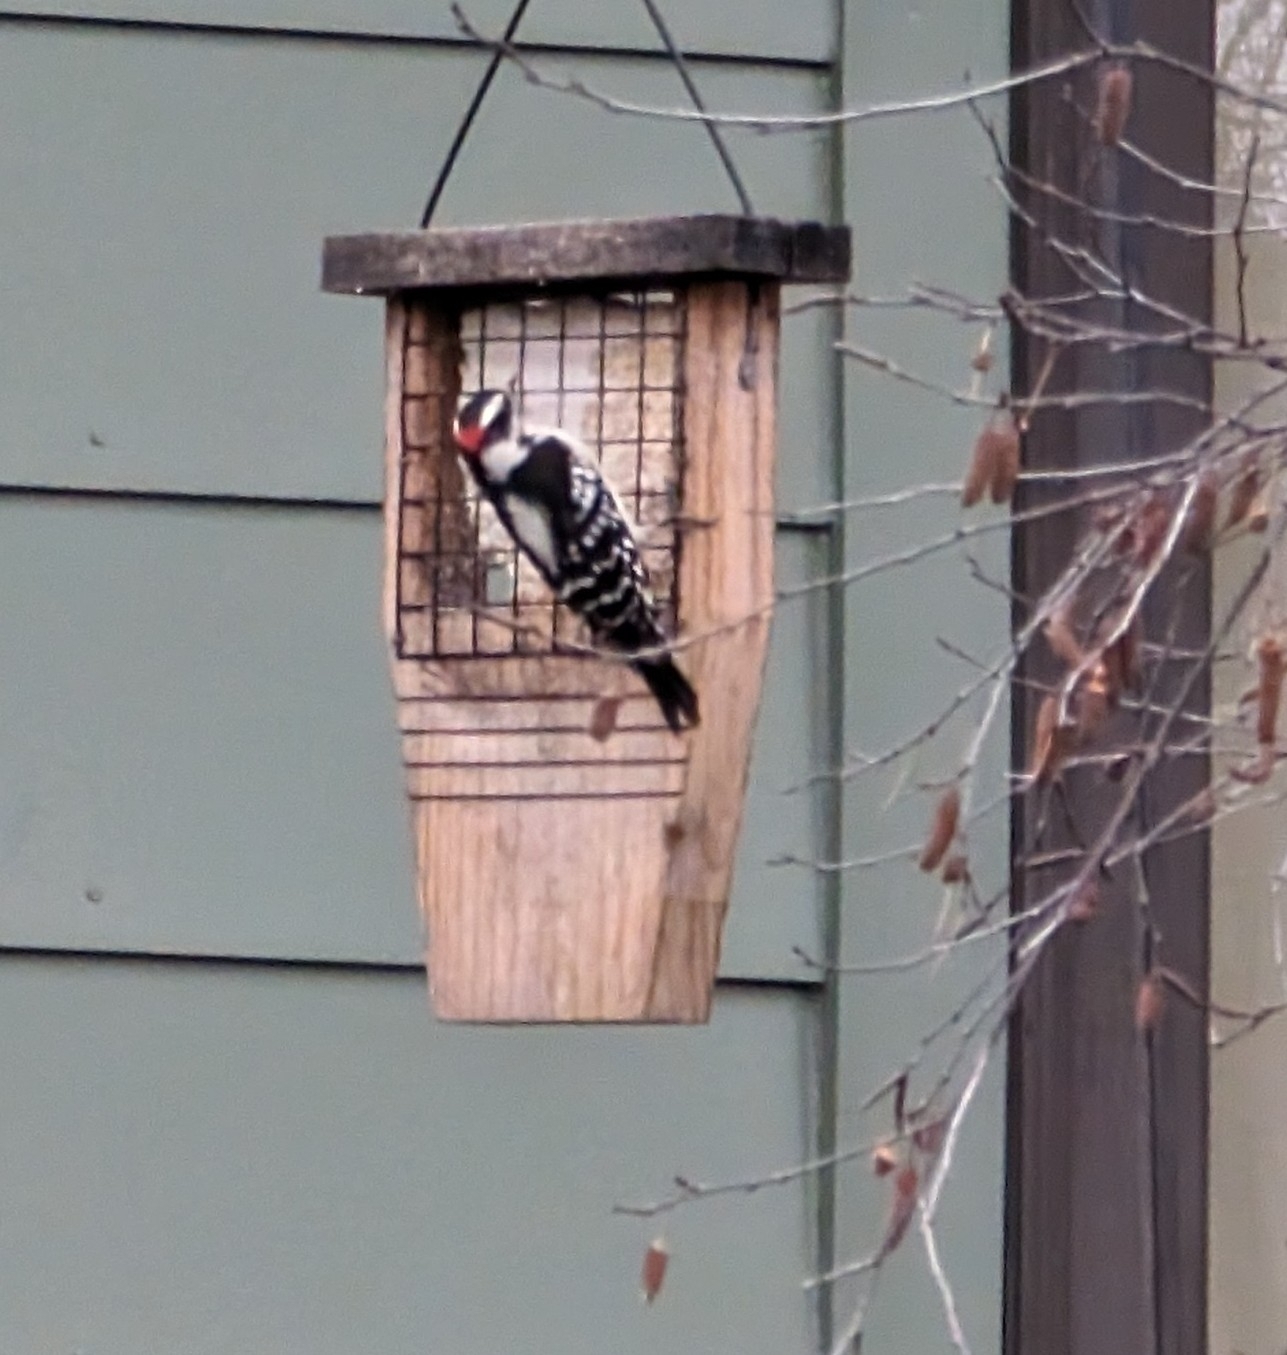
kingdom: Animalia
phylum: Chordata
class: Aves
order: Piciformes
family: Picidae
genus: Dryobates
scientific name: Dryobates pubescens
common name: Downy woodpecker
